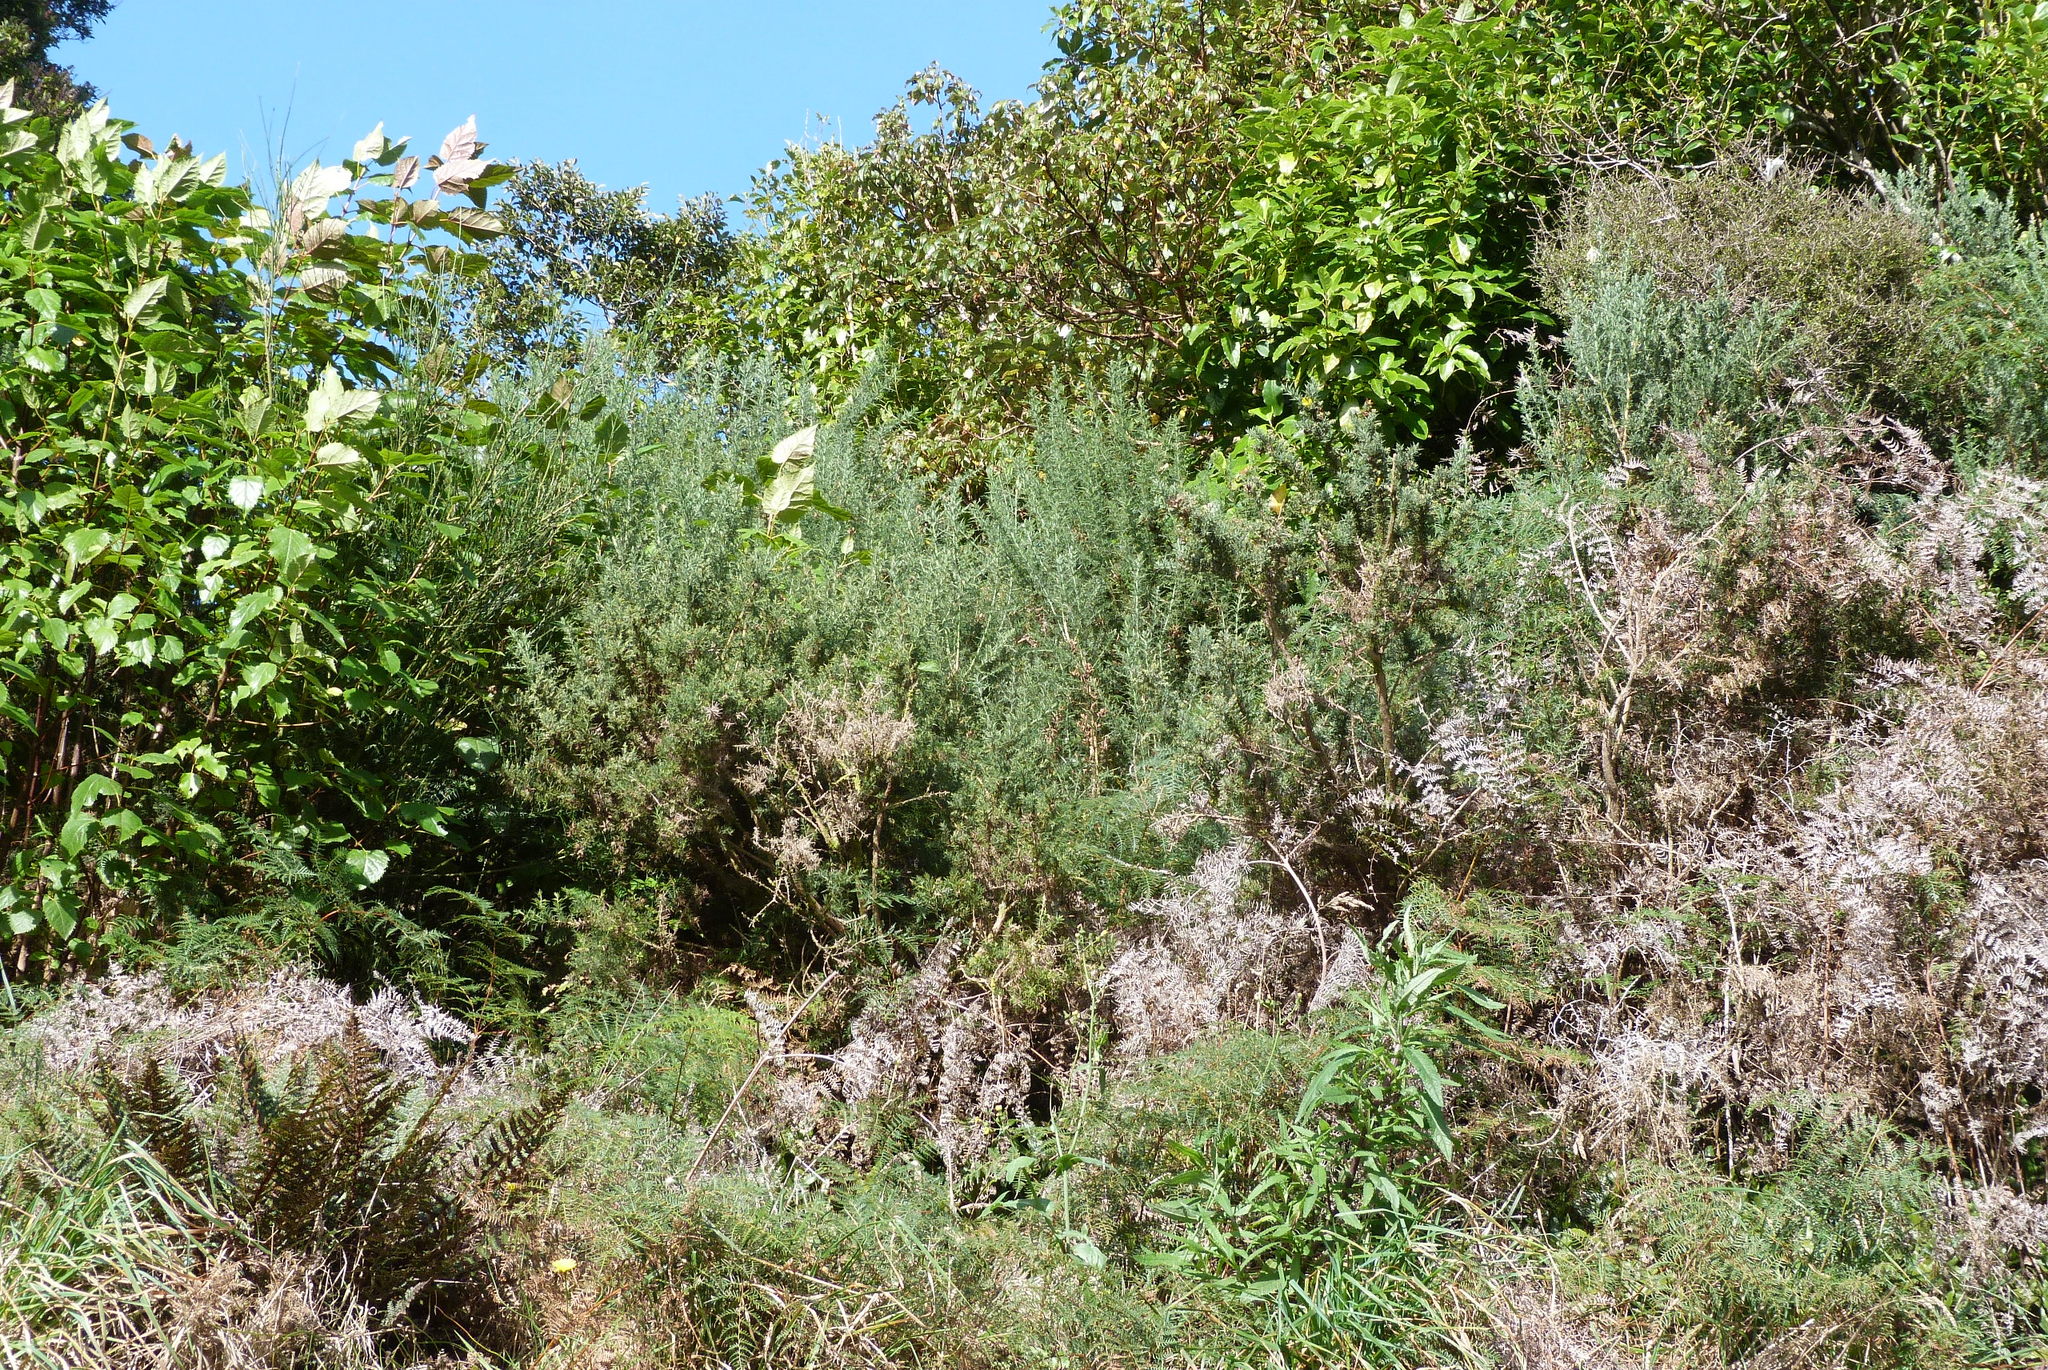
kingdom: Plantae
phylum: Tracheophyta
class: Magnoliopsida
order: Fabales
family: Fabaceae
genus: Ulex
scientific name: Ulex europaeus
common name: Common gorse
